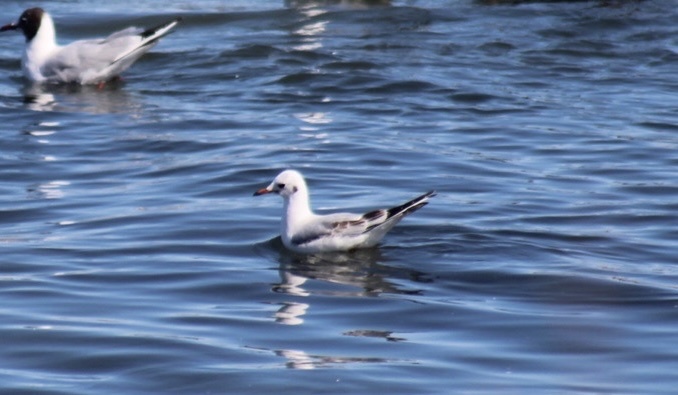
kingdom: Animalia
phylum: Chordata
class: Aves
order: Charadriiformes
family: Laridae
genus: Chroicocephalus
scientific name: Chroicocephalus ridibundus
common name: Black-headed gull
